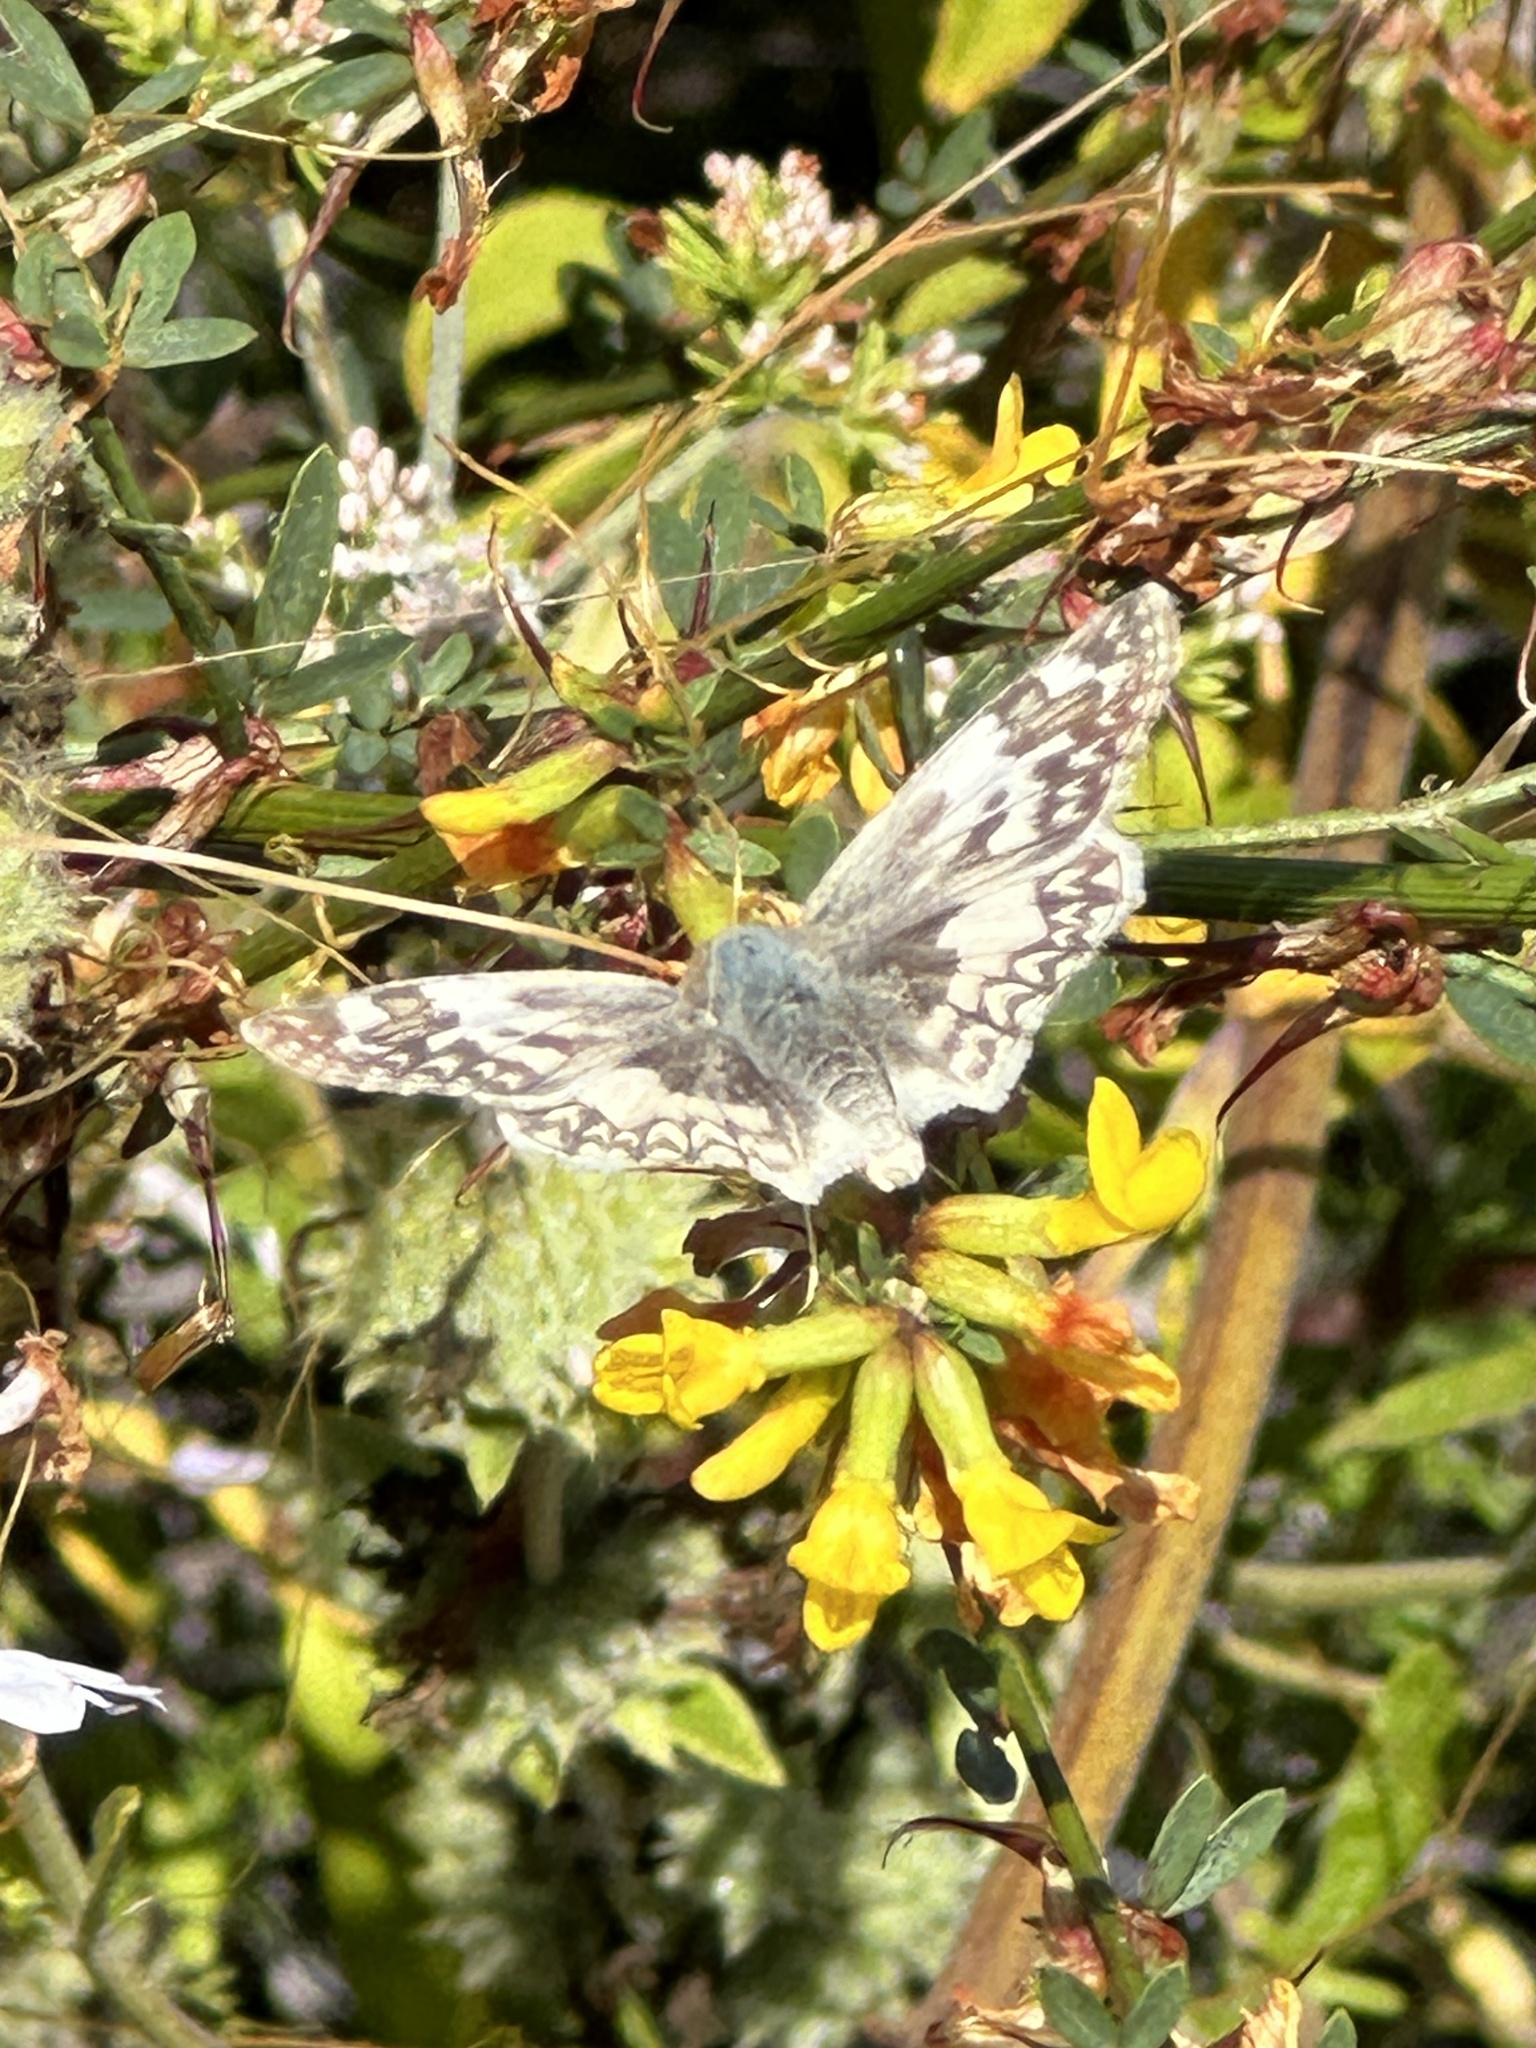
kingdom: Animalia
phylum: Arthropoda
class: Insecta
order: Lepidoptera
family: Hesperiidae
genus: Heliopetes
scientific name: Heliopetes ericetorum
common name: Northern white-skipper
